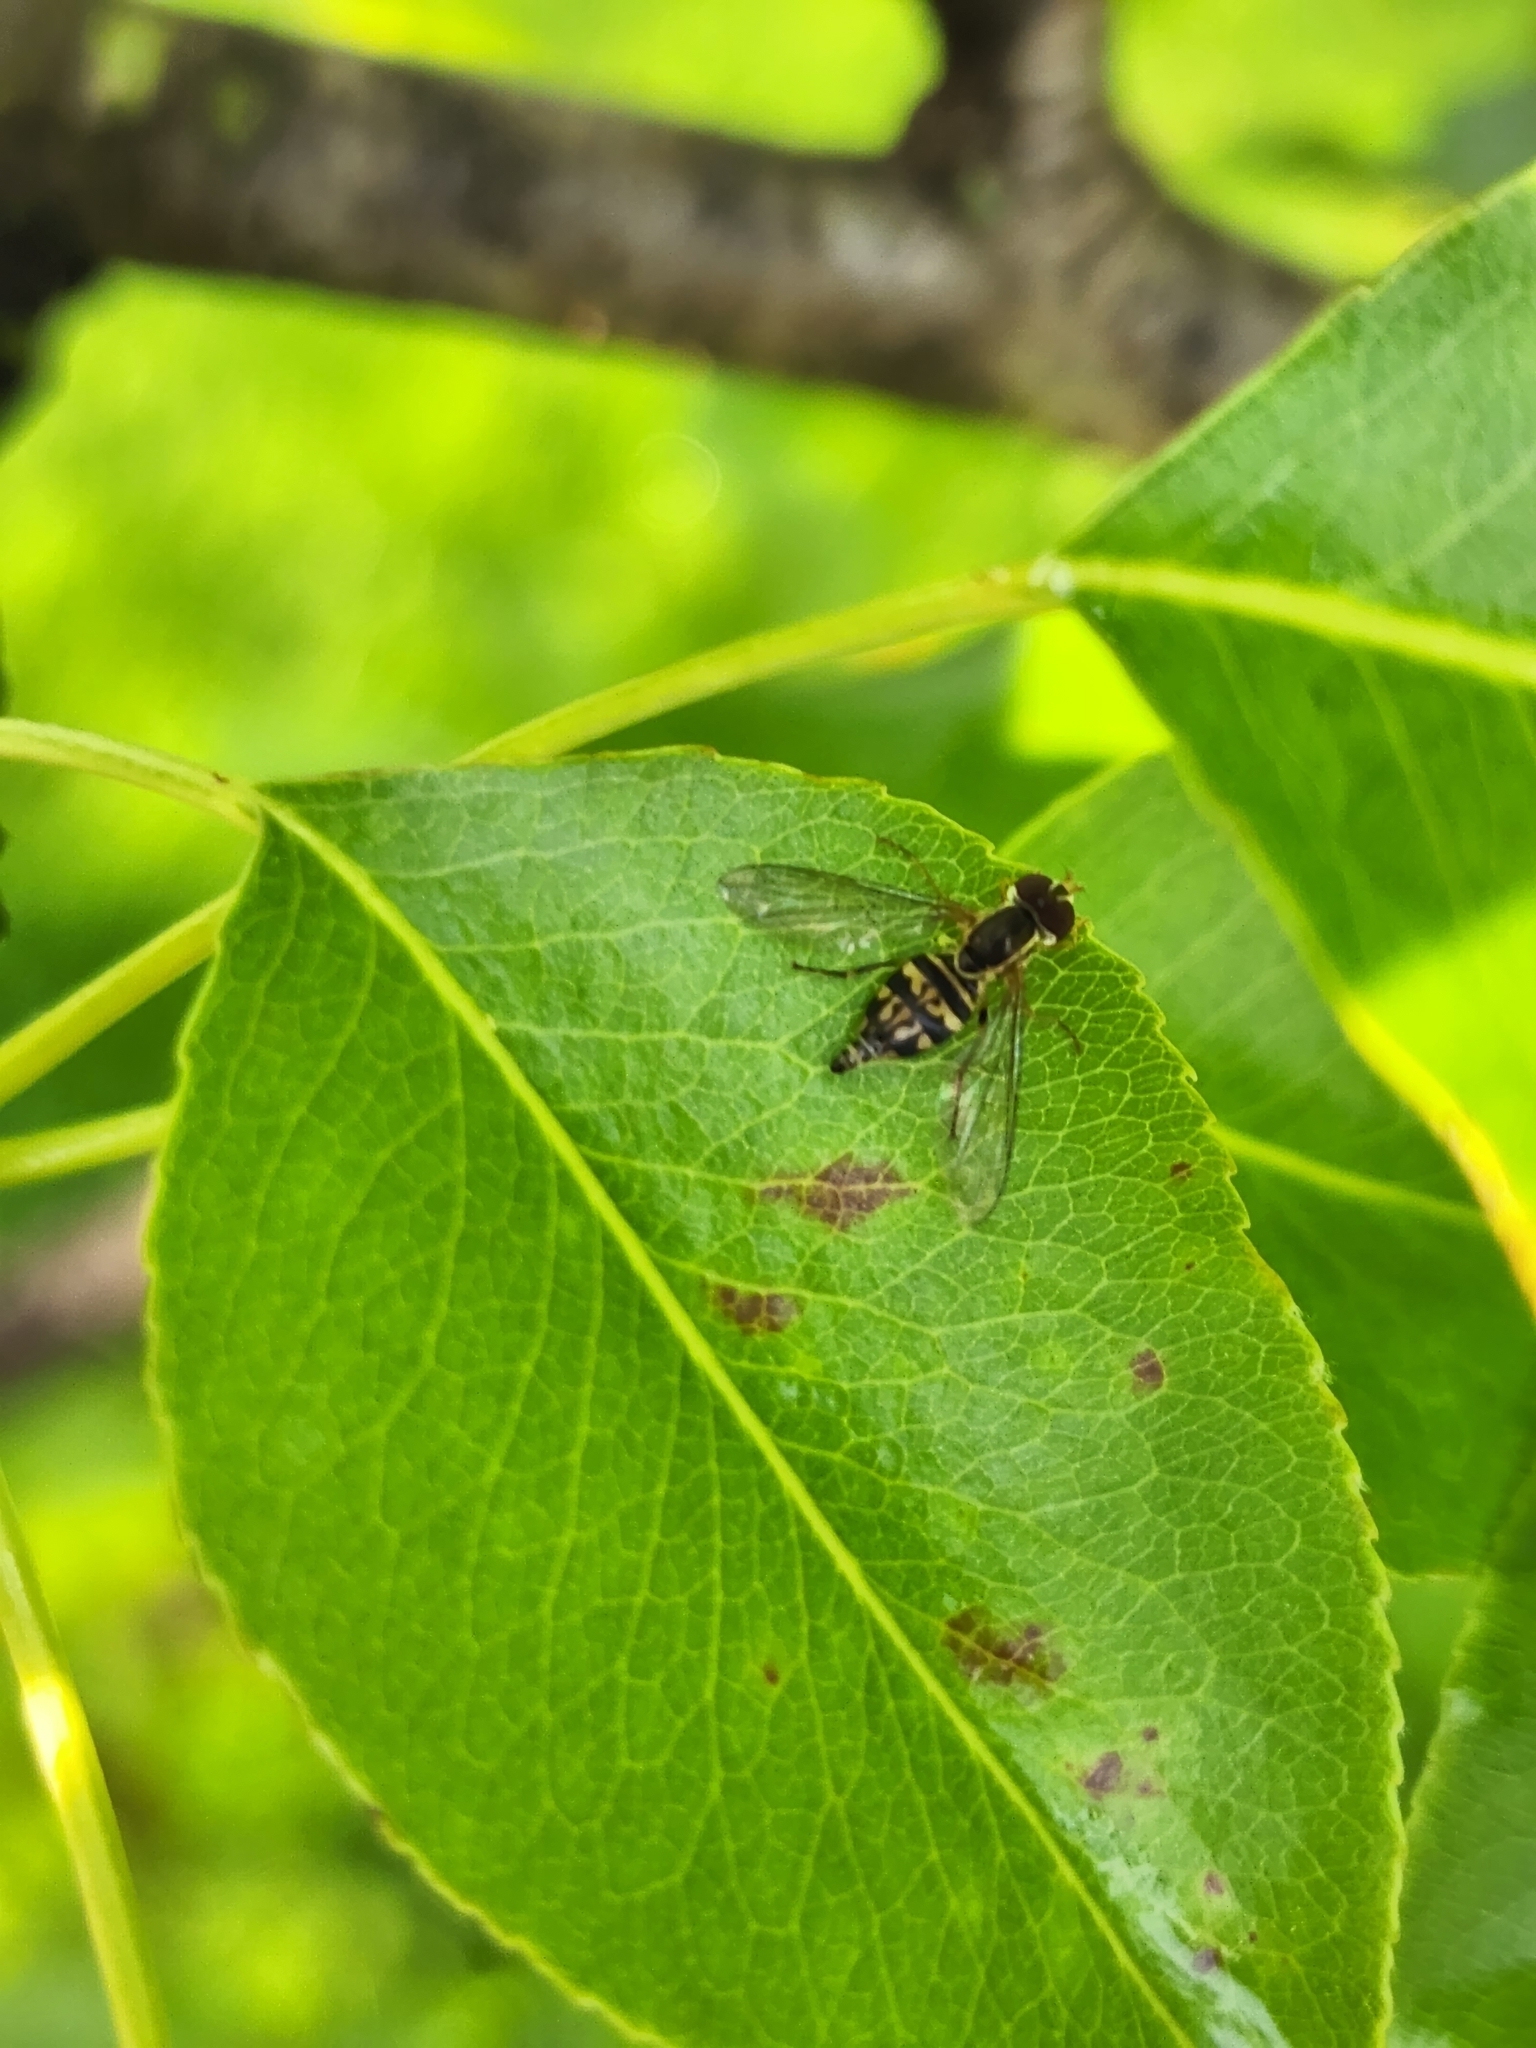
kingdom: Animalia
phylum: Arthropoda
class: Insecta
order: Diptera
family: Syrphidae
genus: Toxomerus
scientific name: Toxomerus geminatus
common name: Eastern calligrapher
